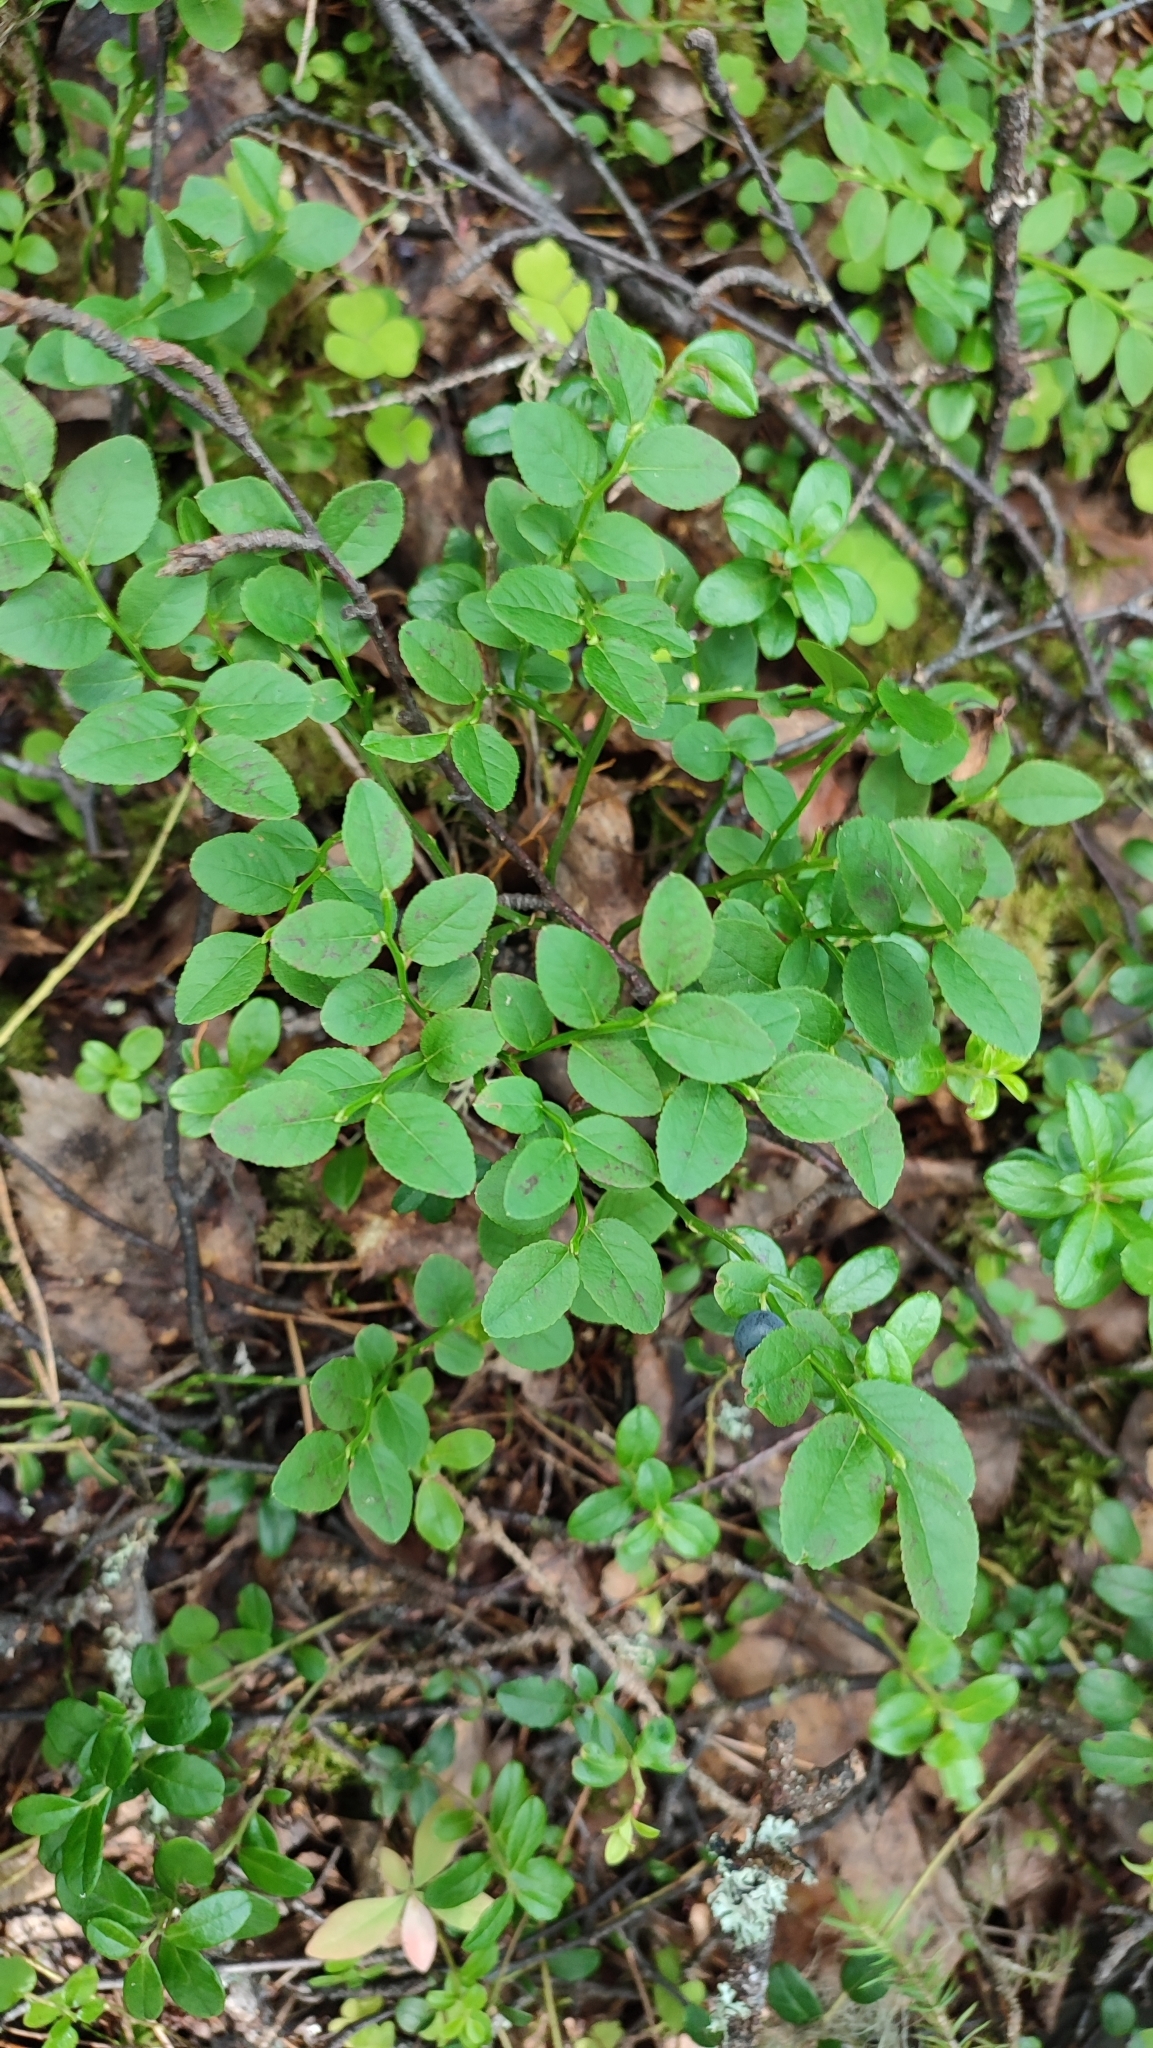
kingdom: Plantae
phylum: Tracheophyta
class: Magnoliopsida
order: Ericales
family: Ericaceae
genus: Vaccinium
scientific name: Vaccinium myrtillus
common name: Bilberry
